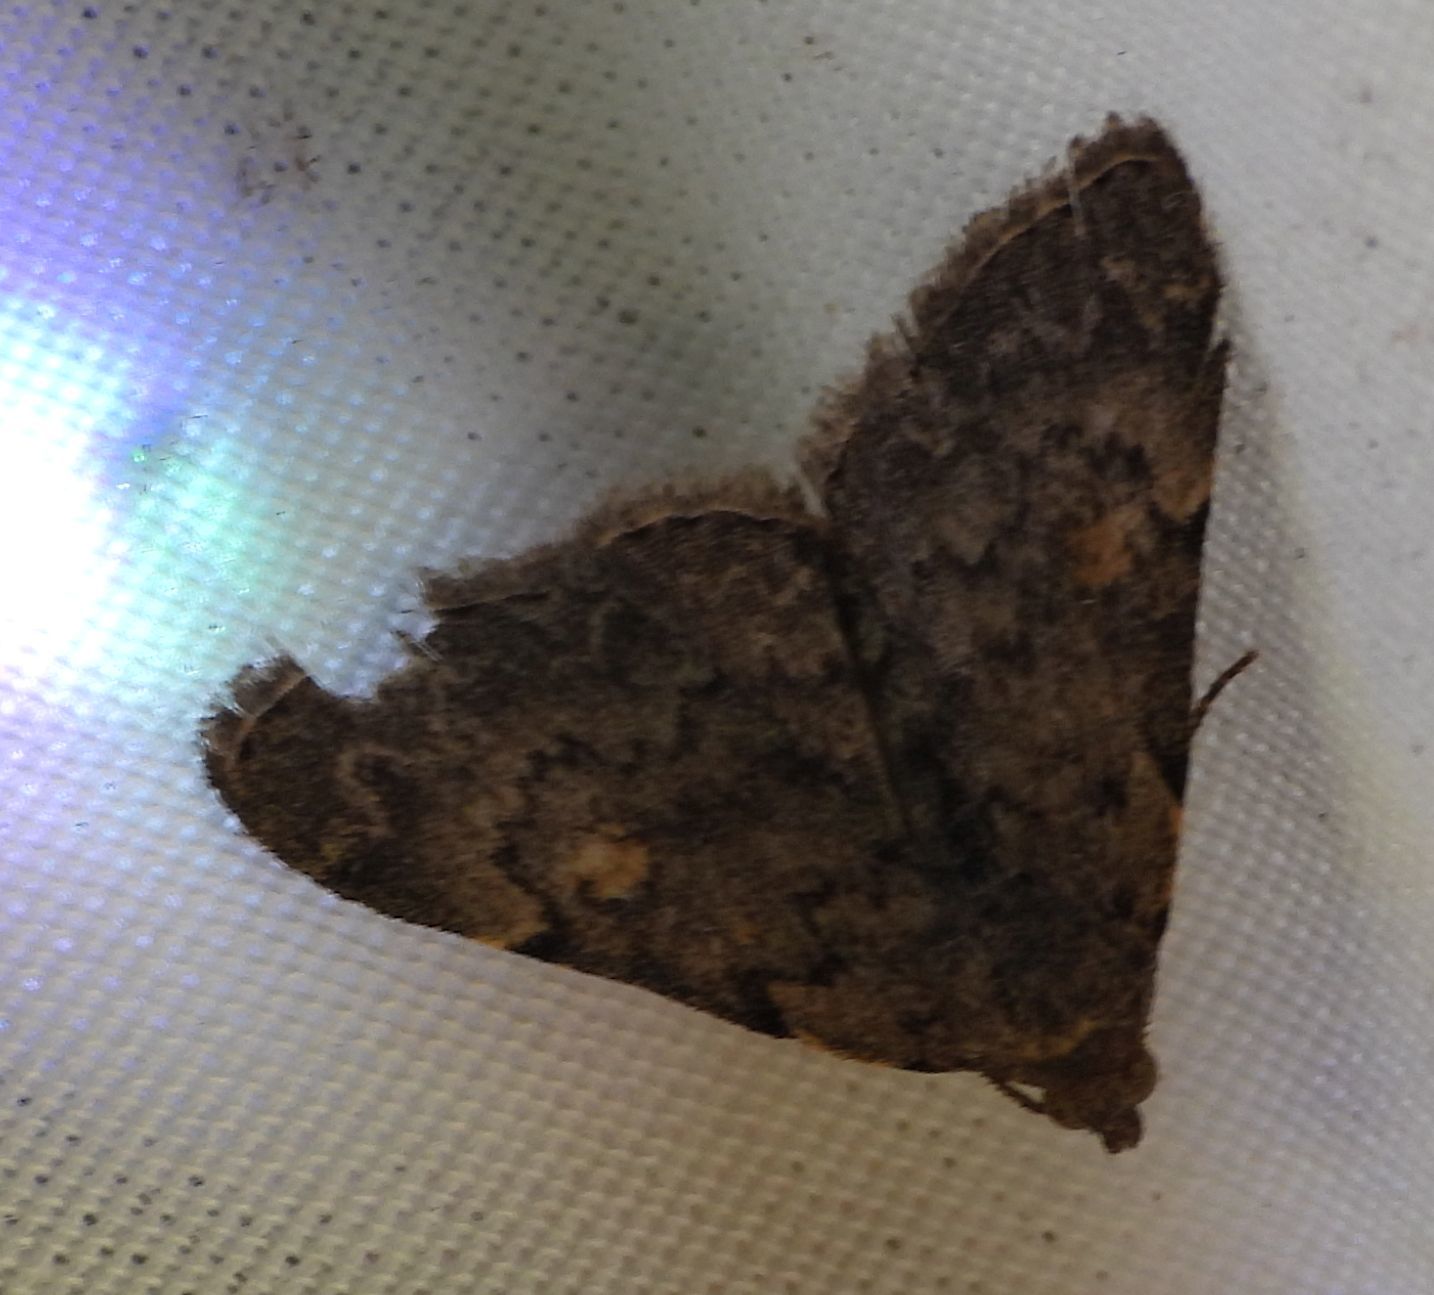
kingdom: Animalia
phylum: Arthropoda
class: Insecta
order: Lepidoptera
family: Erebidae
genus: Idia
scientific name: Idia aemula
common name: Common idia moth
